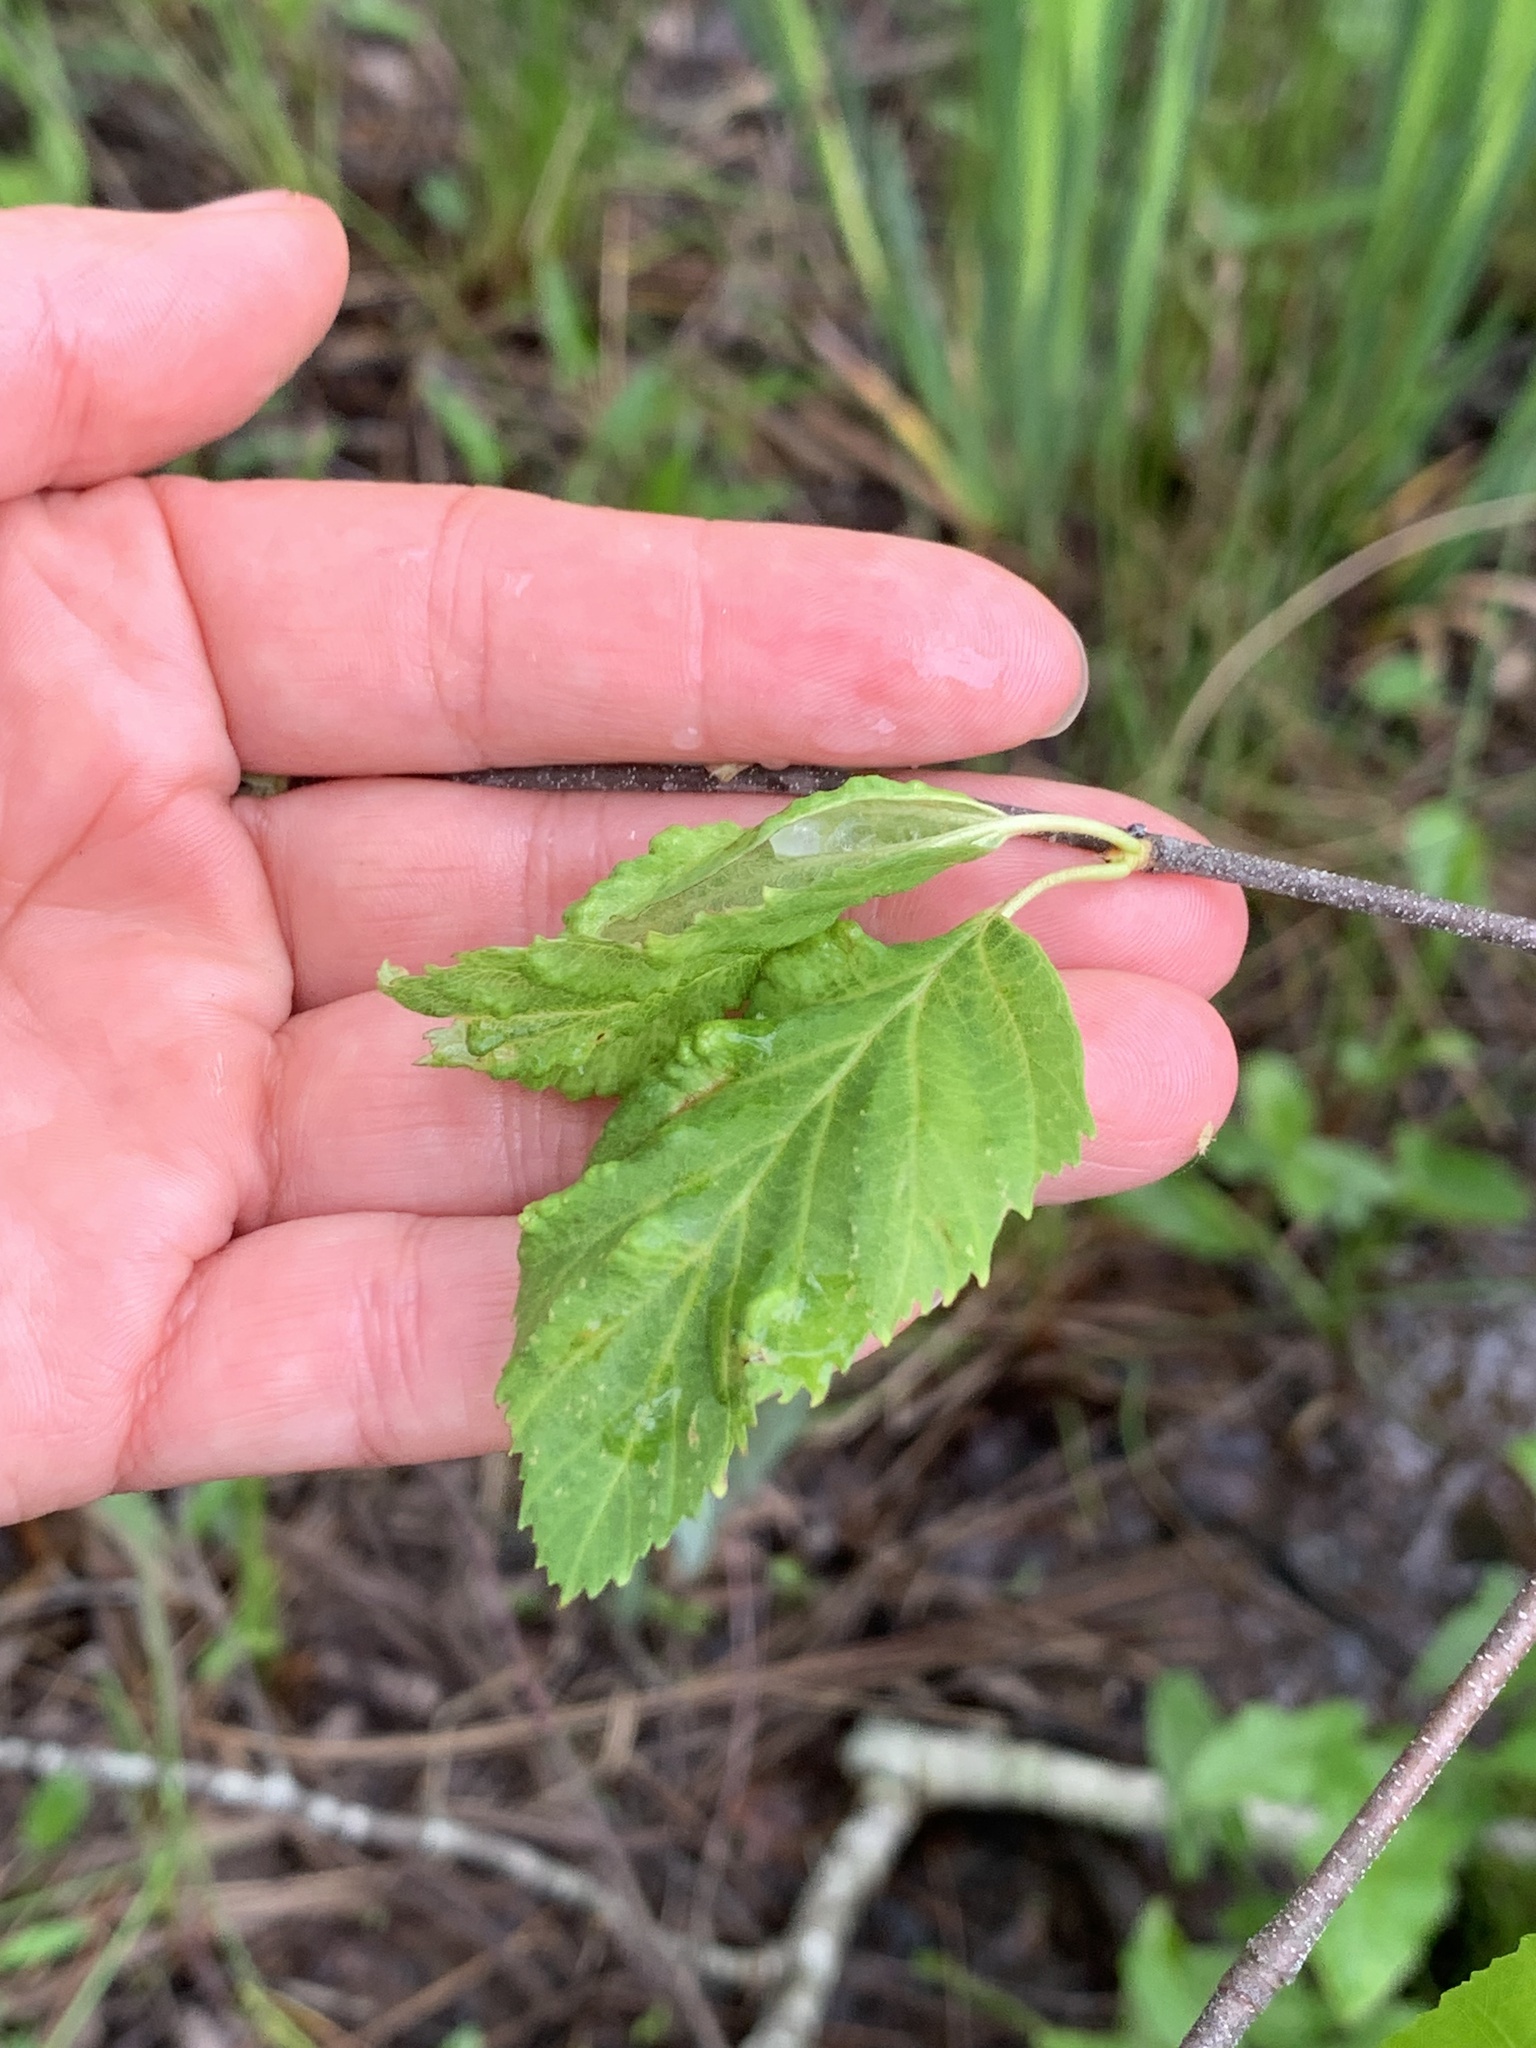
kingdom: Animalia
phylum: Arthropoda
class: Insecta
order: Hemiptera
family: Aphididae
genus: Hamamelistes
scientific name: Hamamelistes spinosus
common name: Witch hazel gall aphid
